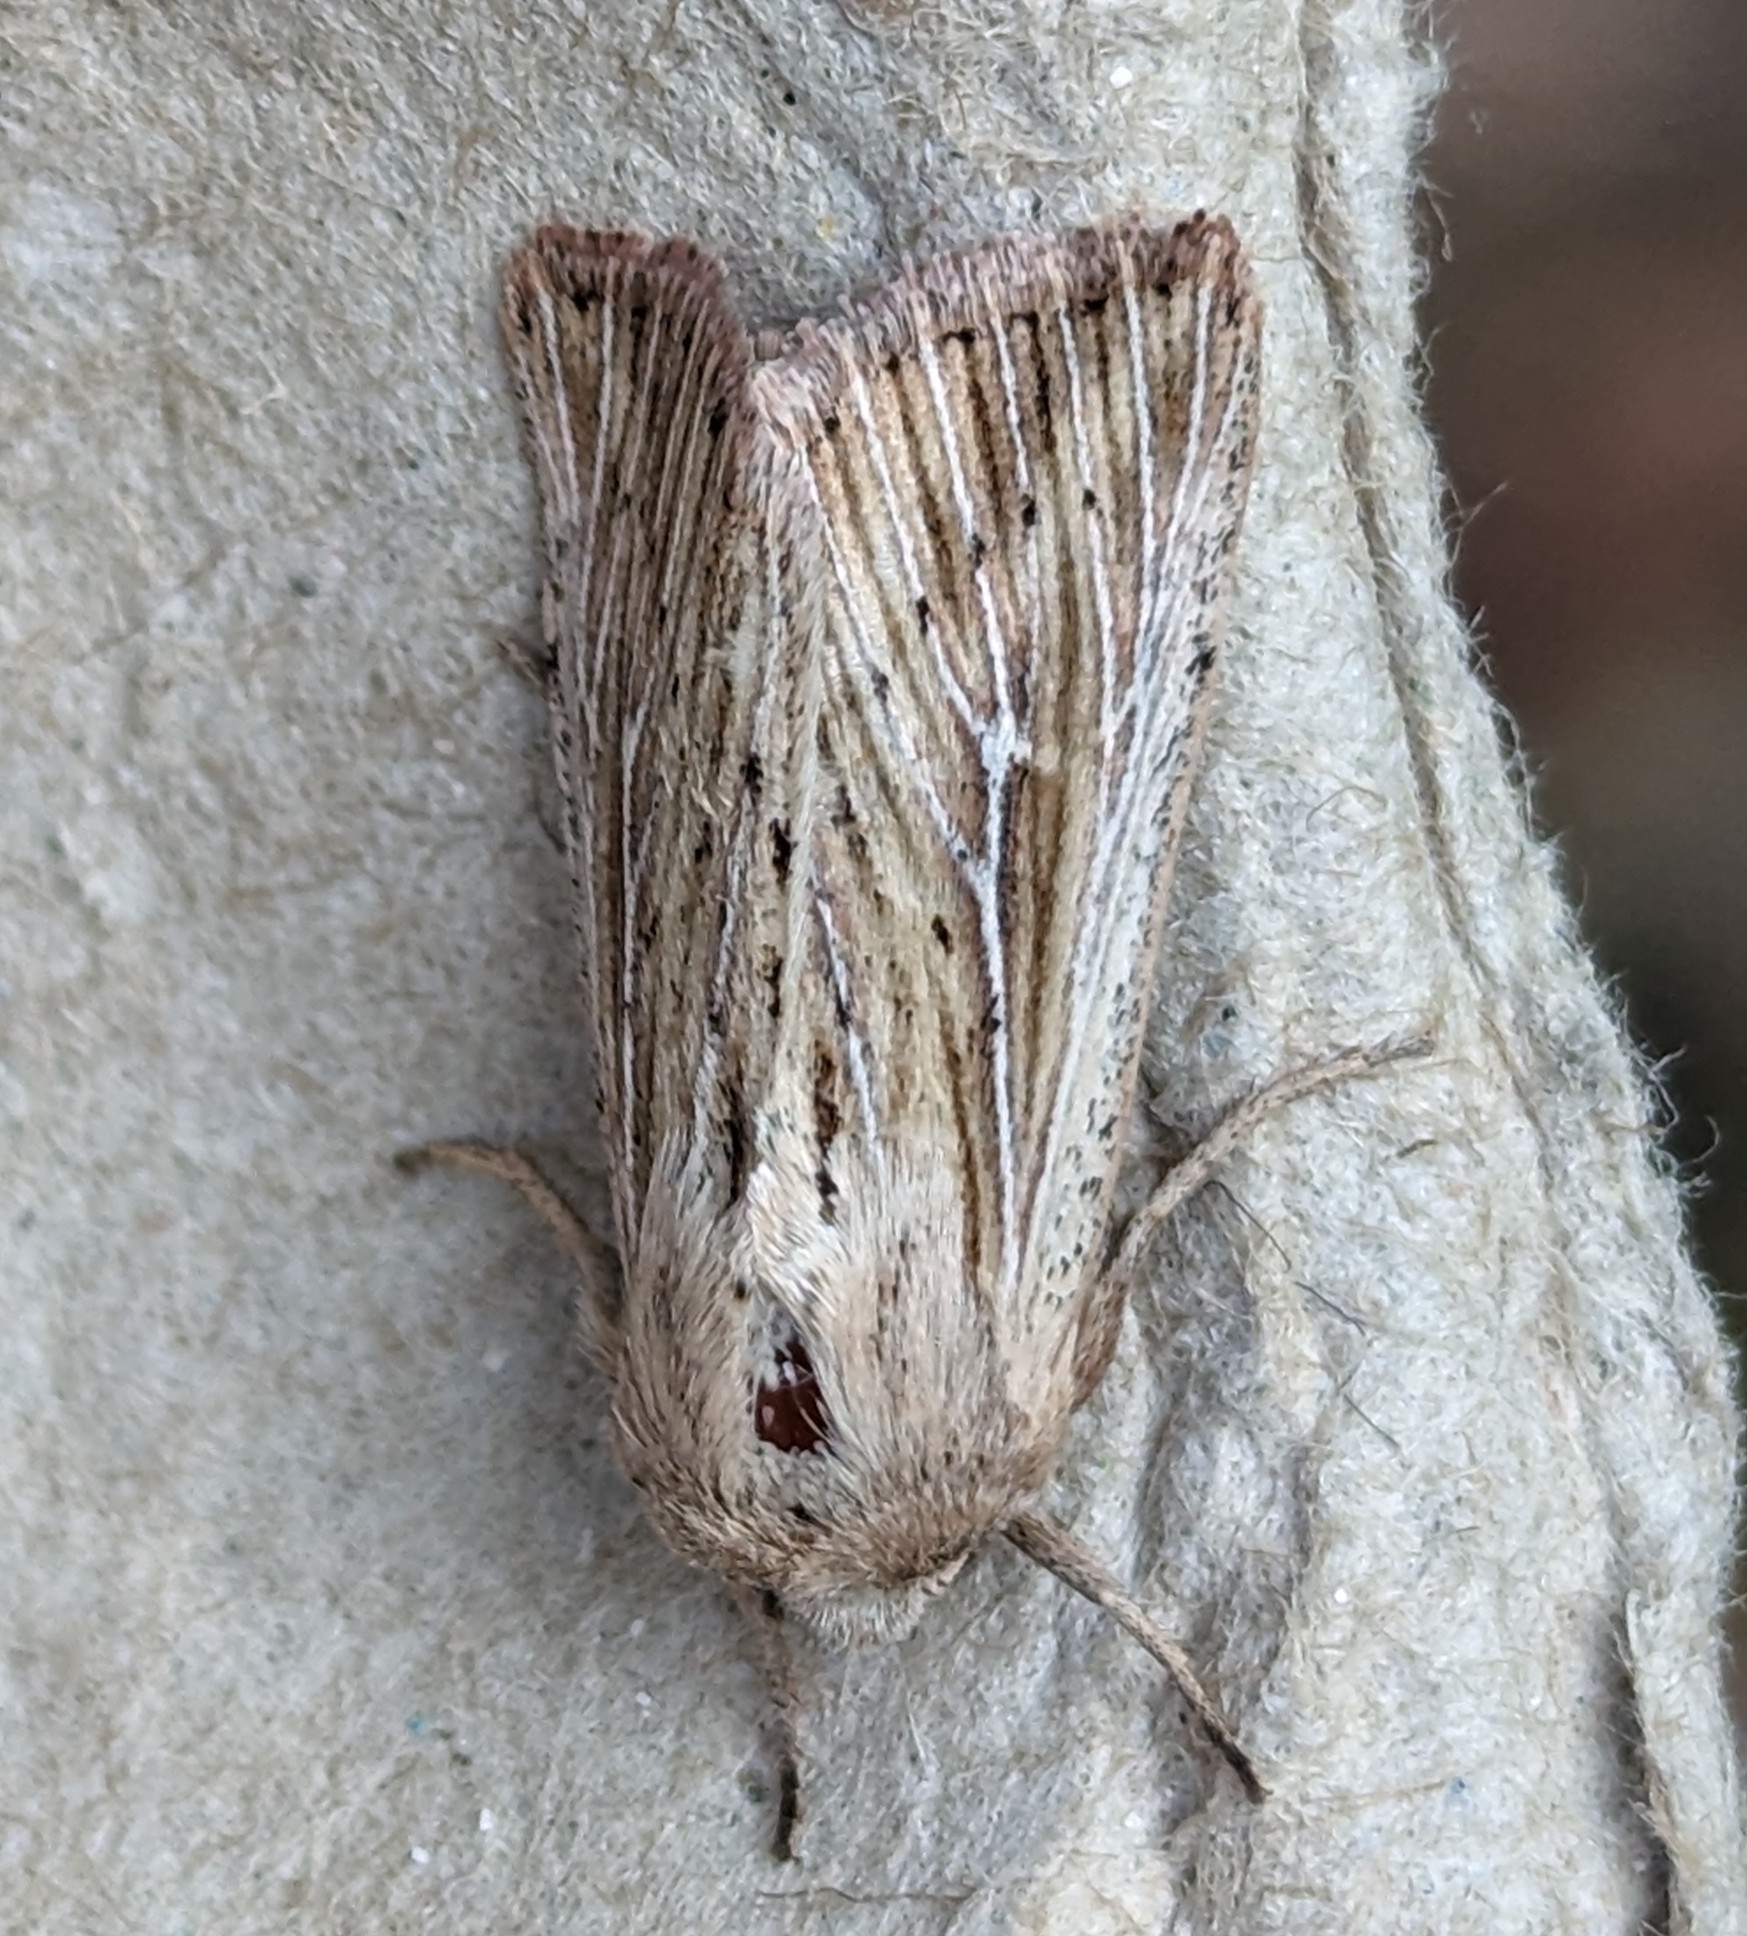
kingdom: Animalia
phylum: Arthropoda
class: Insecta
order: Lepidoptera
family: Noctuidae
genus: Leucania
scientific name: Leucania insueta
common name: Heterodox wainscot moth
